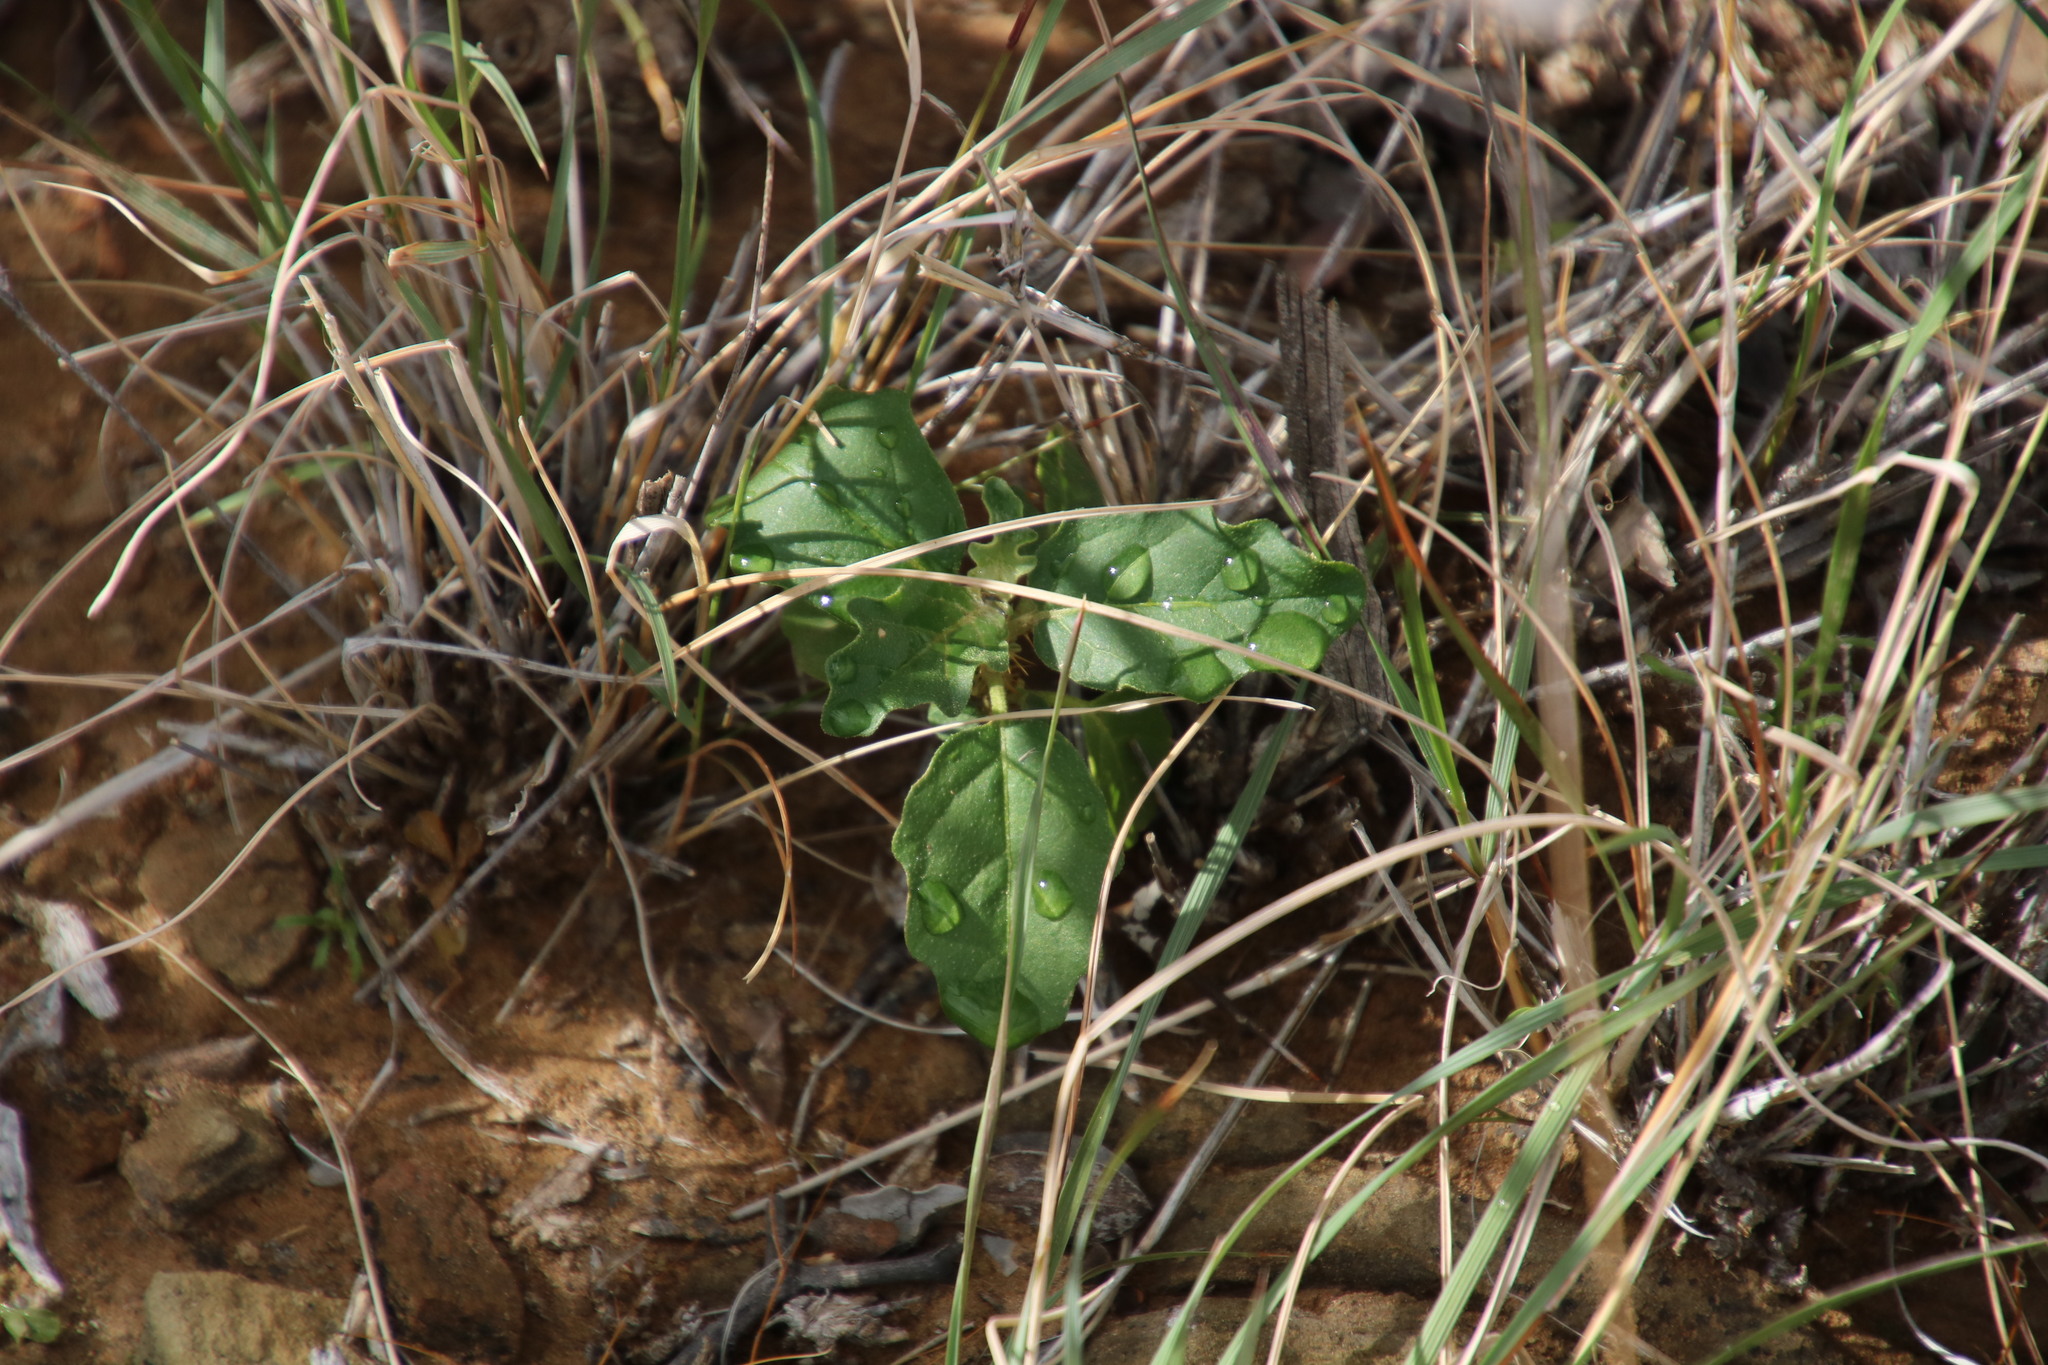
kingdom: Plantae
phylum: Tracheophyta
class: Magnoliopsida
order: Solanales
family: Solanaceae
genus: Solanum
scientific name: Solanum capense
